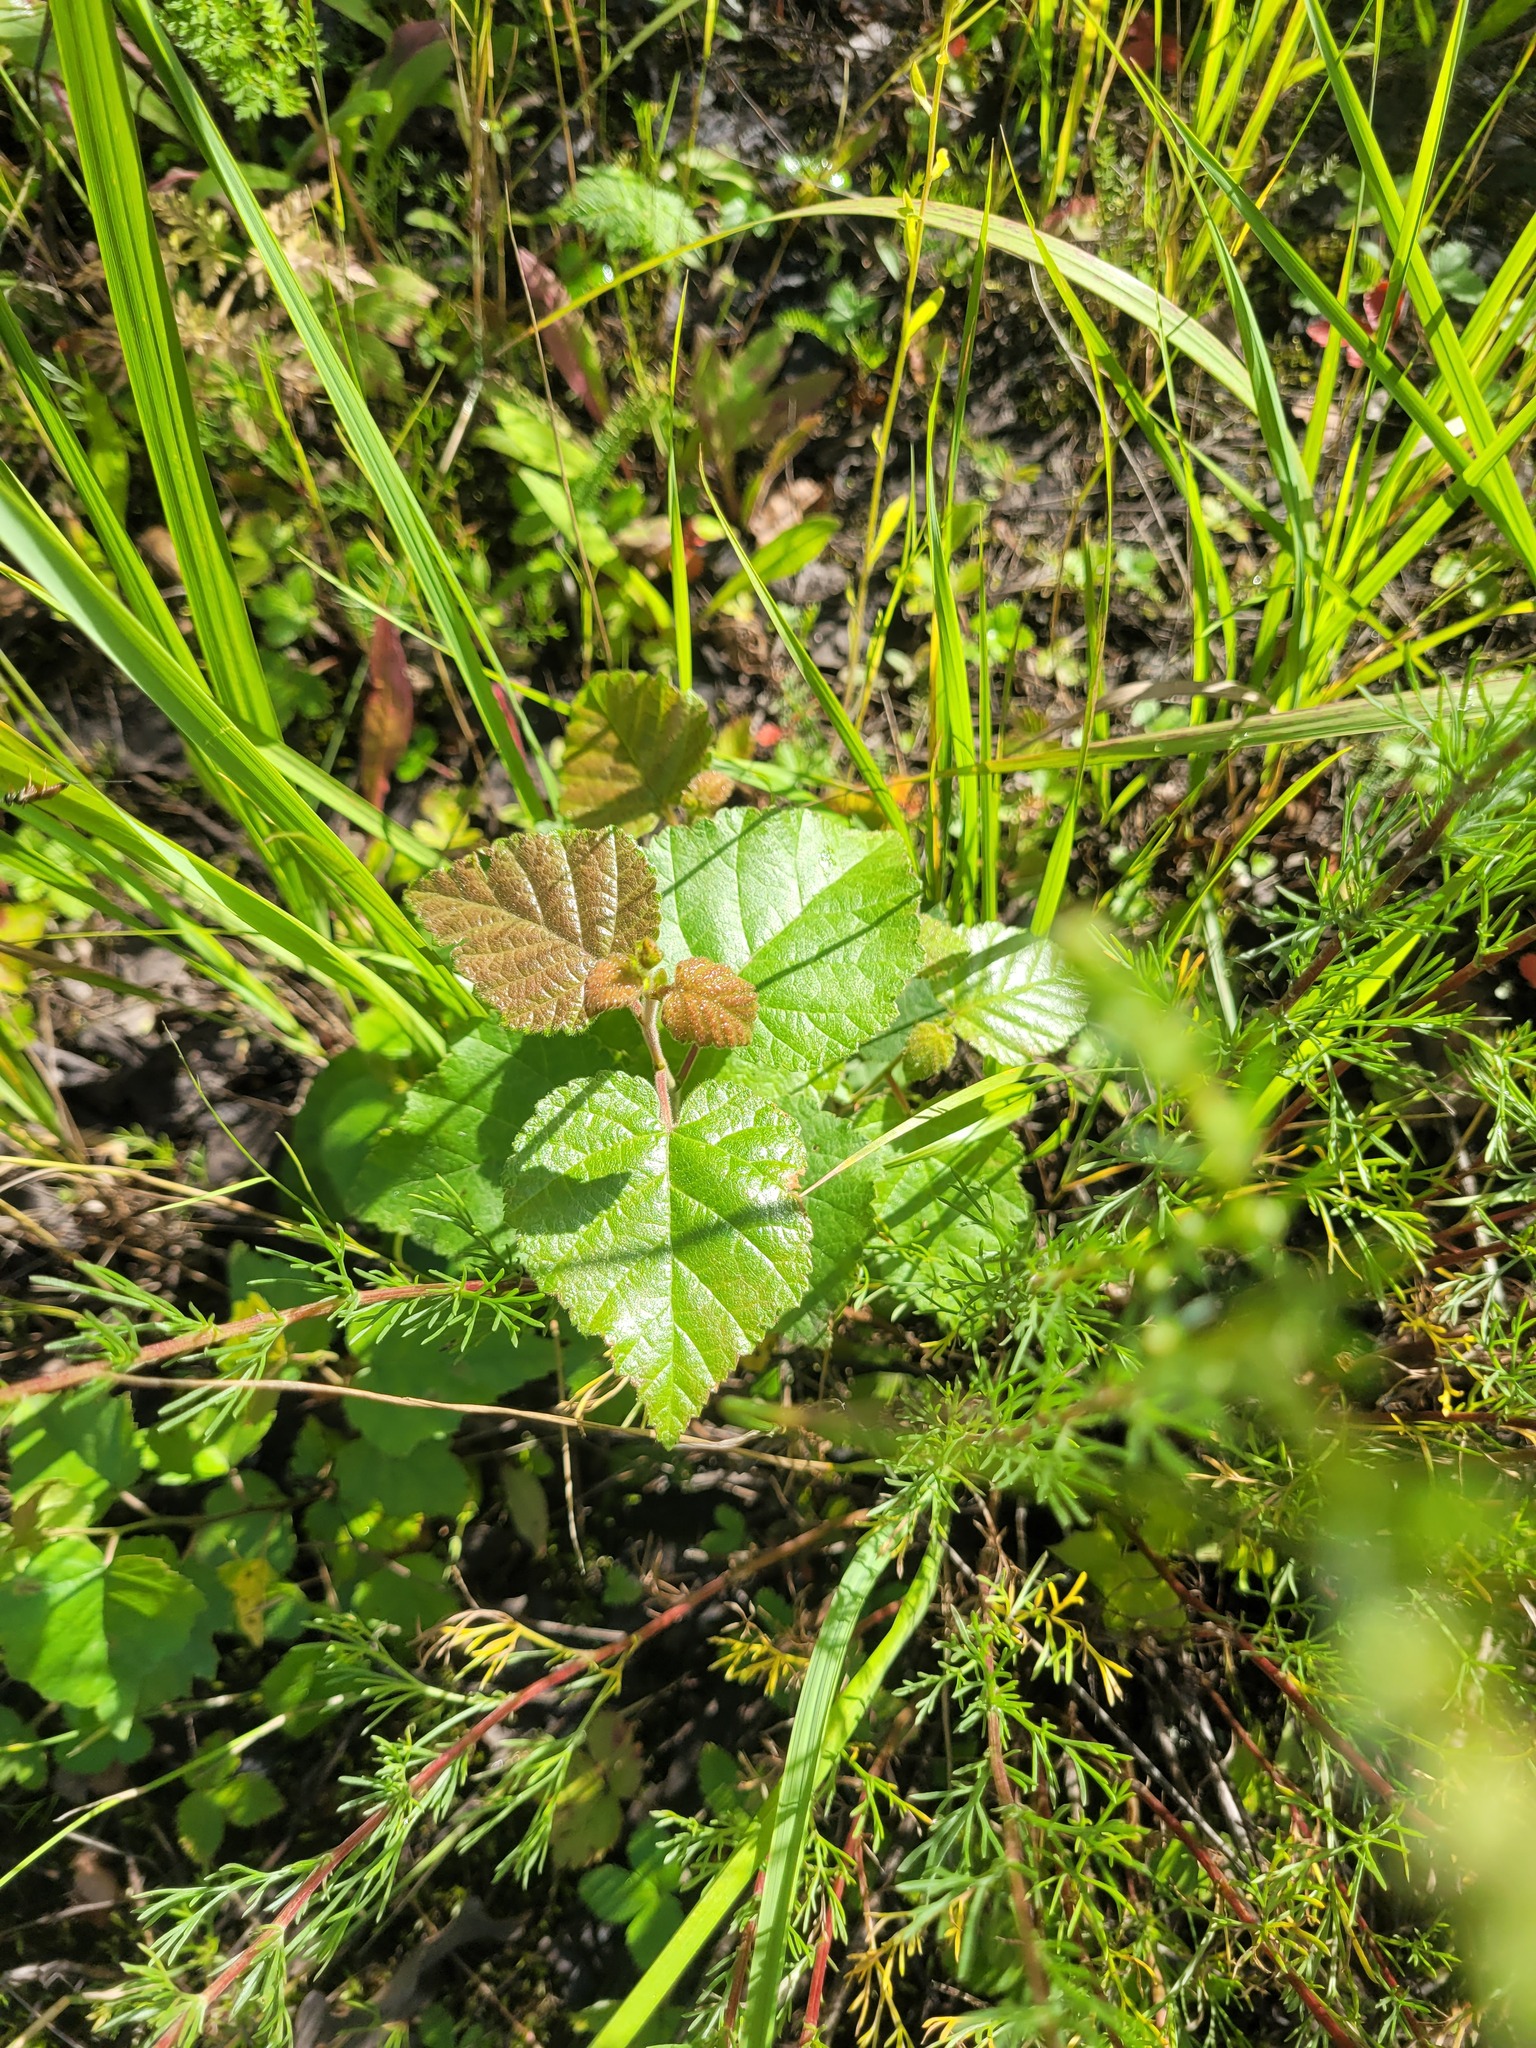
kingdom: Plantae
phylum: Tracheophyta
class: Magnoliopsida
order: Fagales
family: Betulaceae
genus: Betula
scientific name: Betula pubescens
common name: Downy birch
